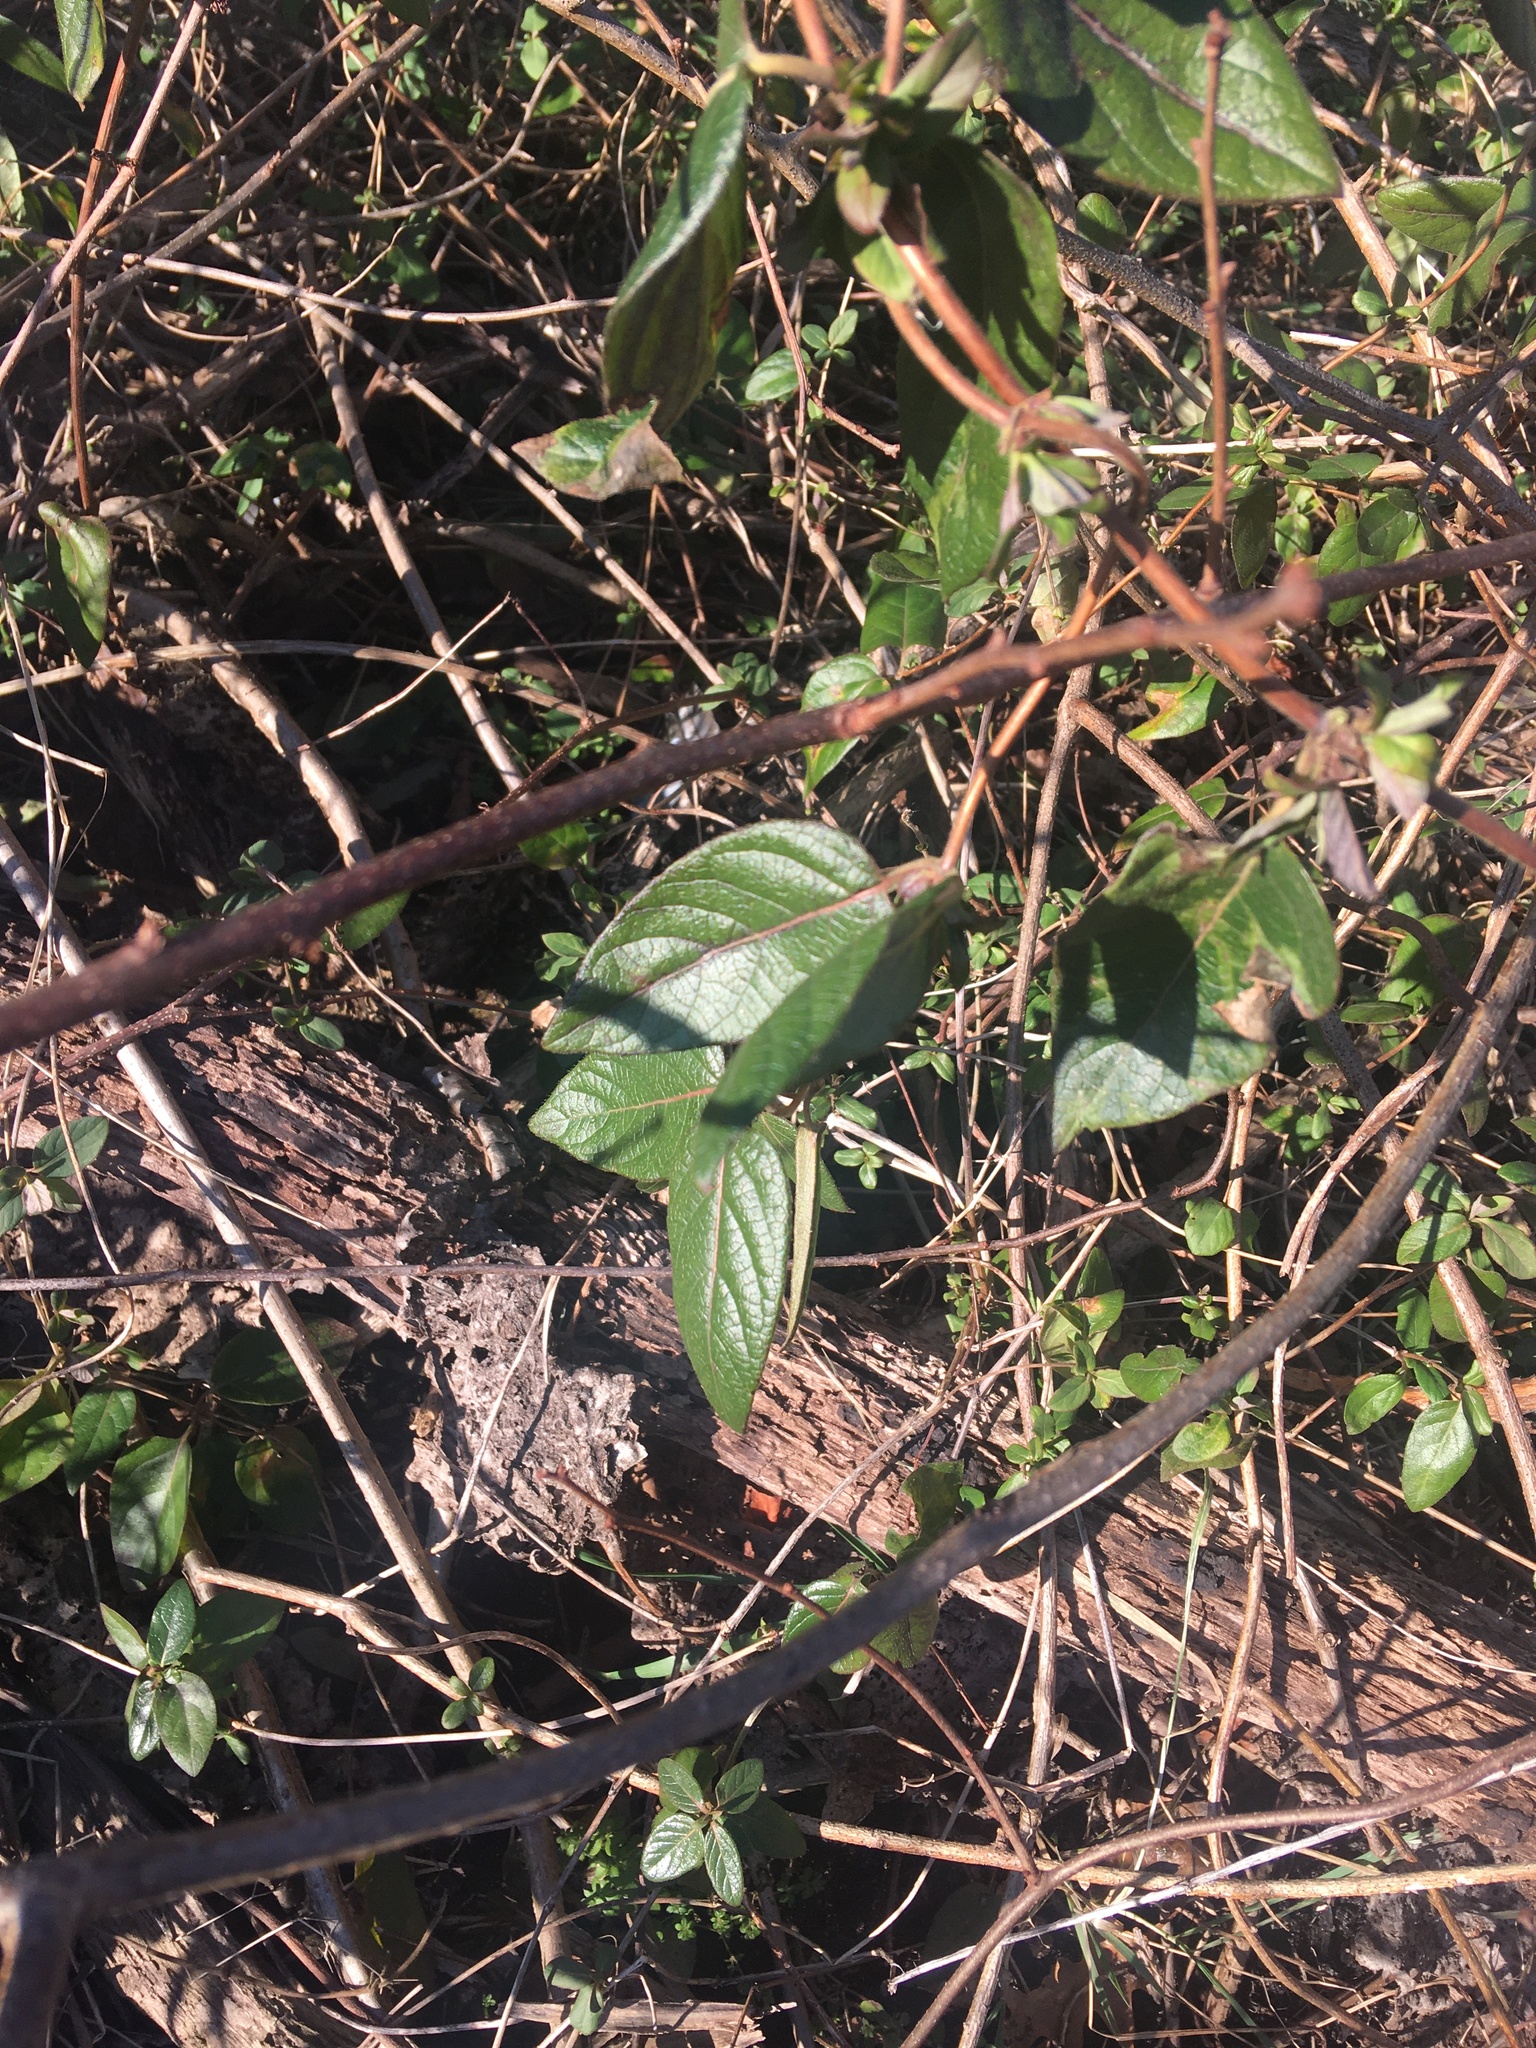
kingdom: Plantae
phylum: Tracheophyta
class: Magnoliopsida
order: Dipsacales
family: Caprifoliaceae
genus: Lonicera
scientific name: Lonicera japonica
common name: Japanese honeysuckle
